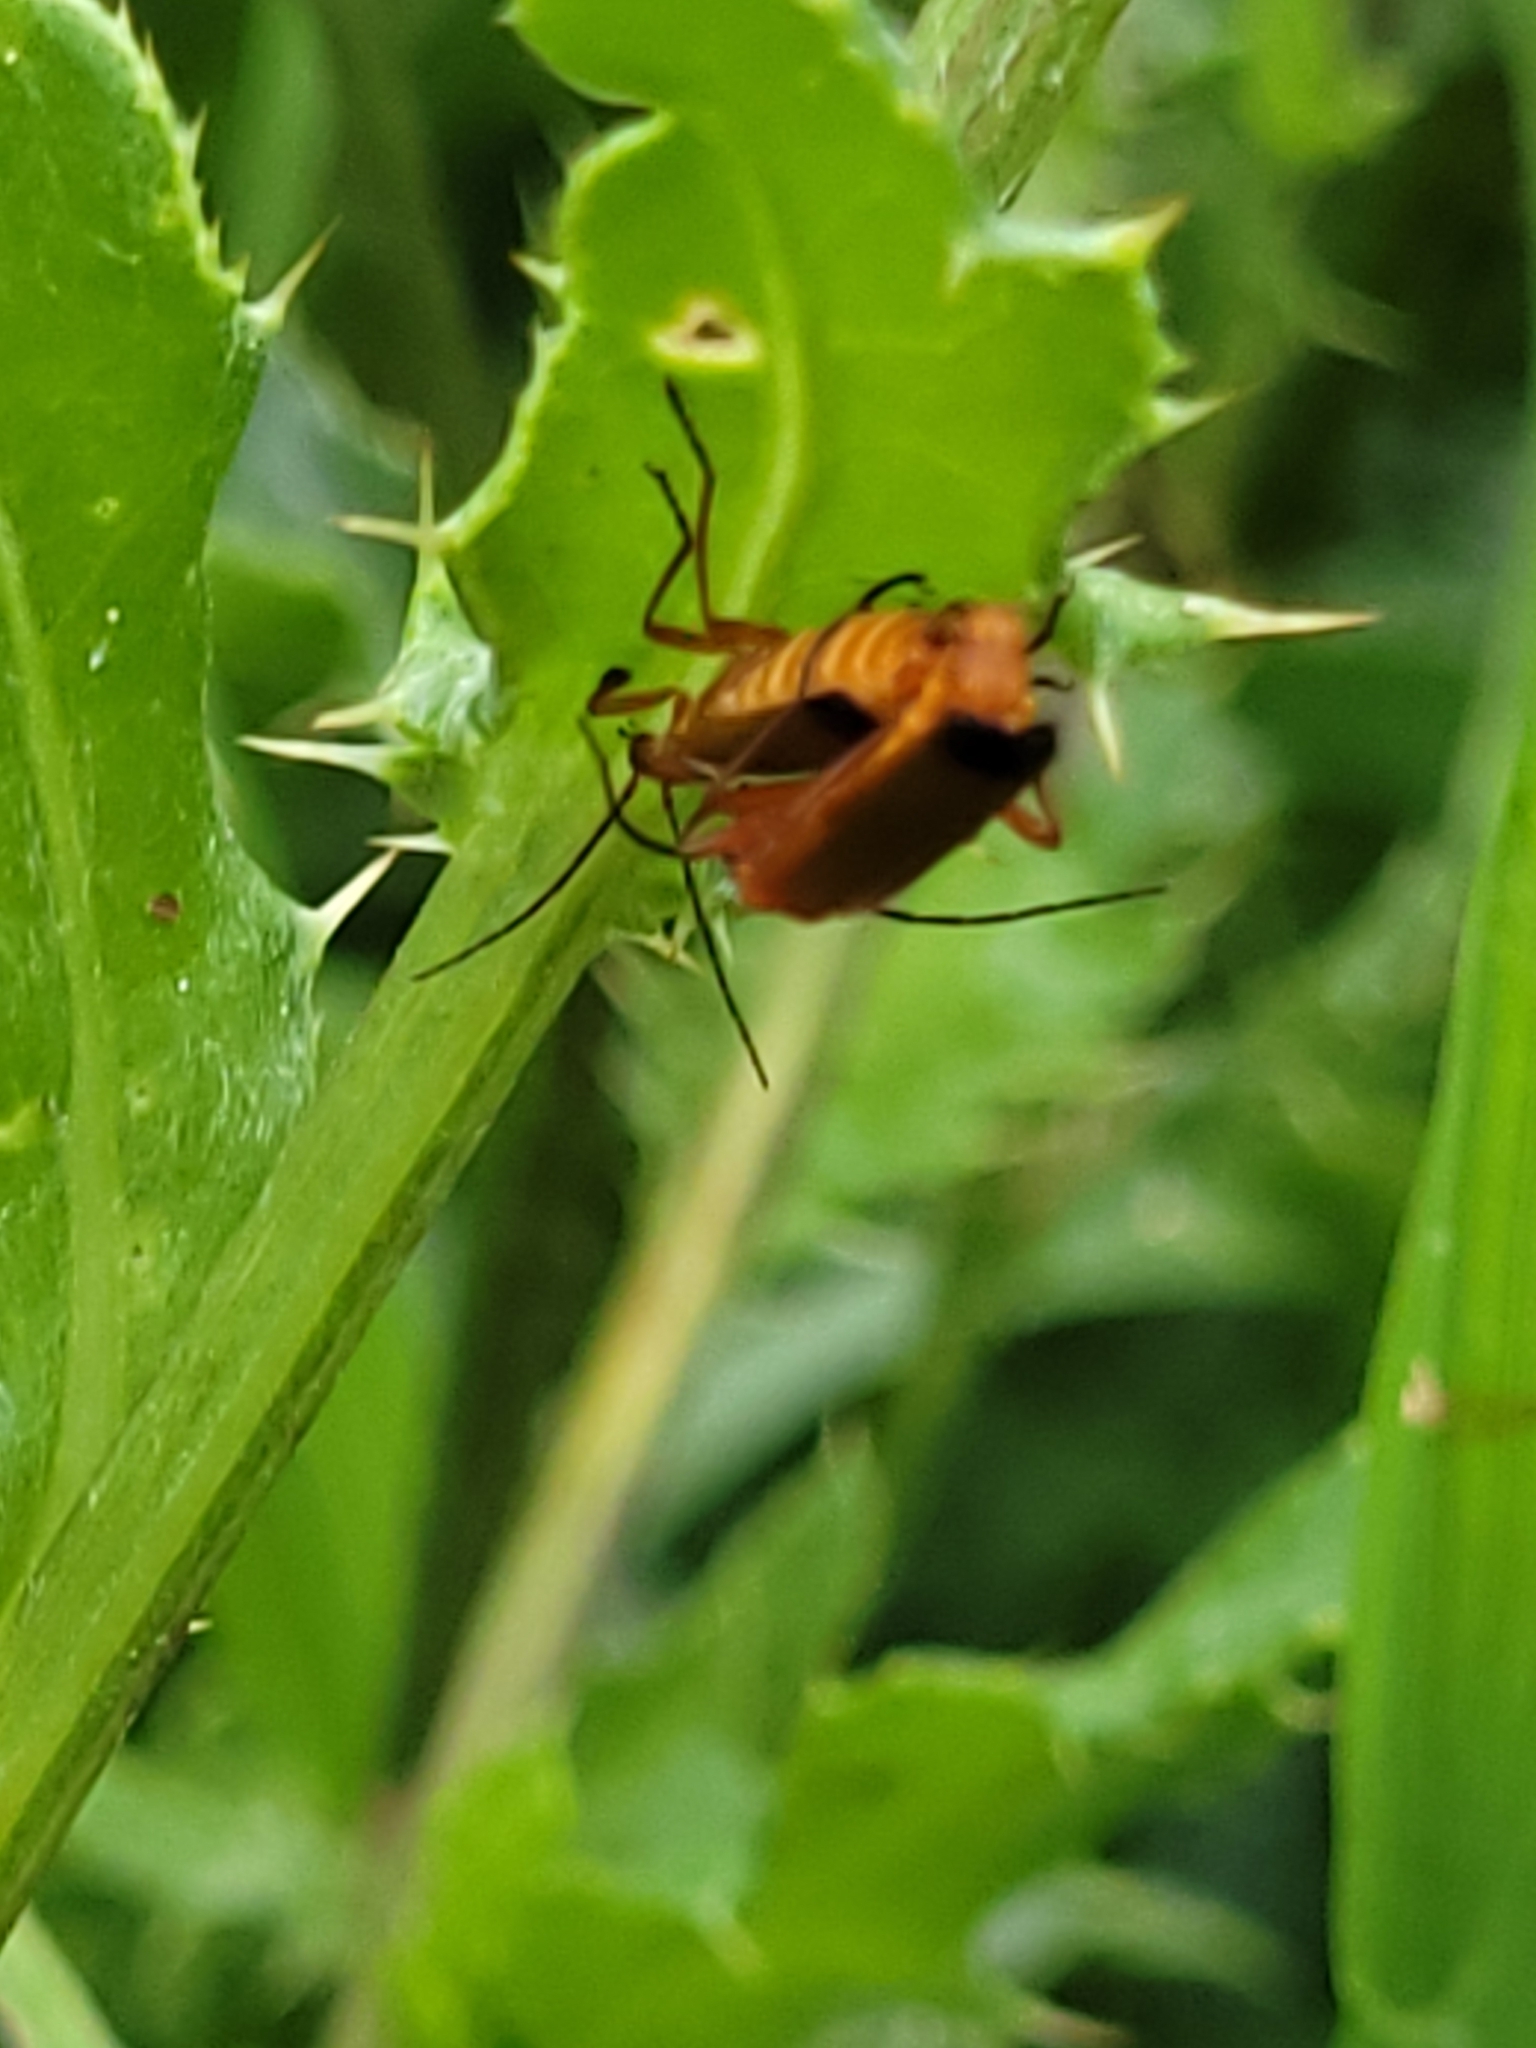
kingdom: Animalia
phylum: Arthropoda
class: Insecta
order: Coleoptera
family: Cantharidae
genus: Rhagonycha
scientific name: Rhagonycha fulva
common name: Common red soldier beetle
